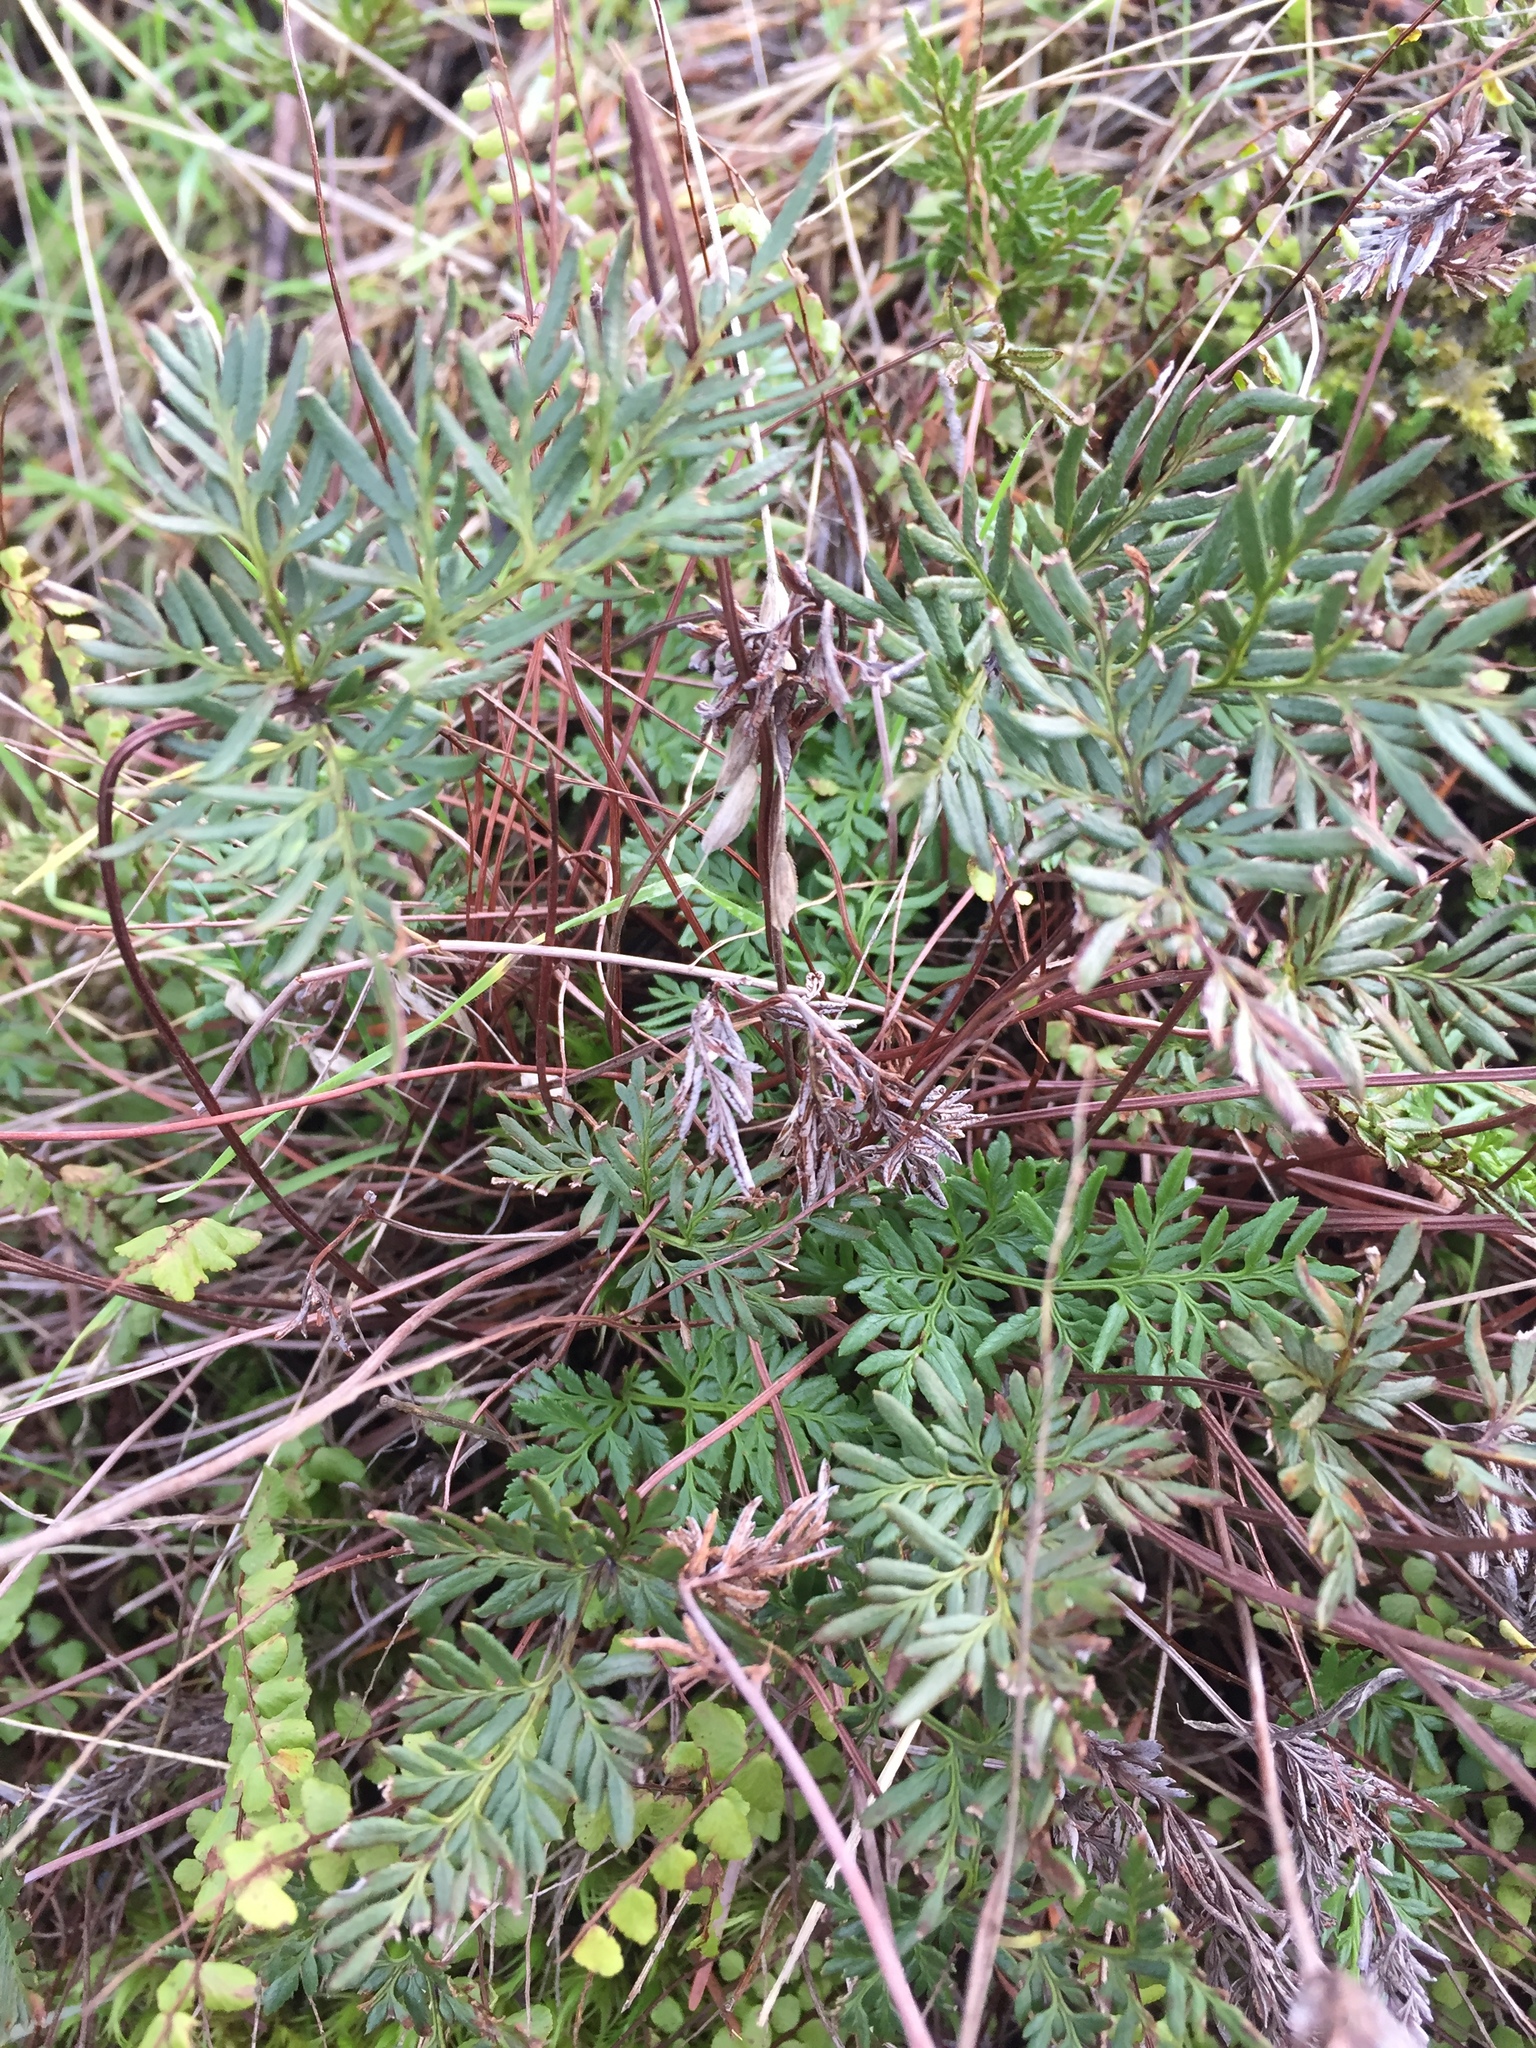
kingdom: Plantae
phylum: Tracheophyta
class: Polypodiopsida
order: Polypodiales
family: Pteridaceae
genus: Aspidotis
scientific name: Aspidotis densa
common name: Indian's dream
